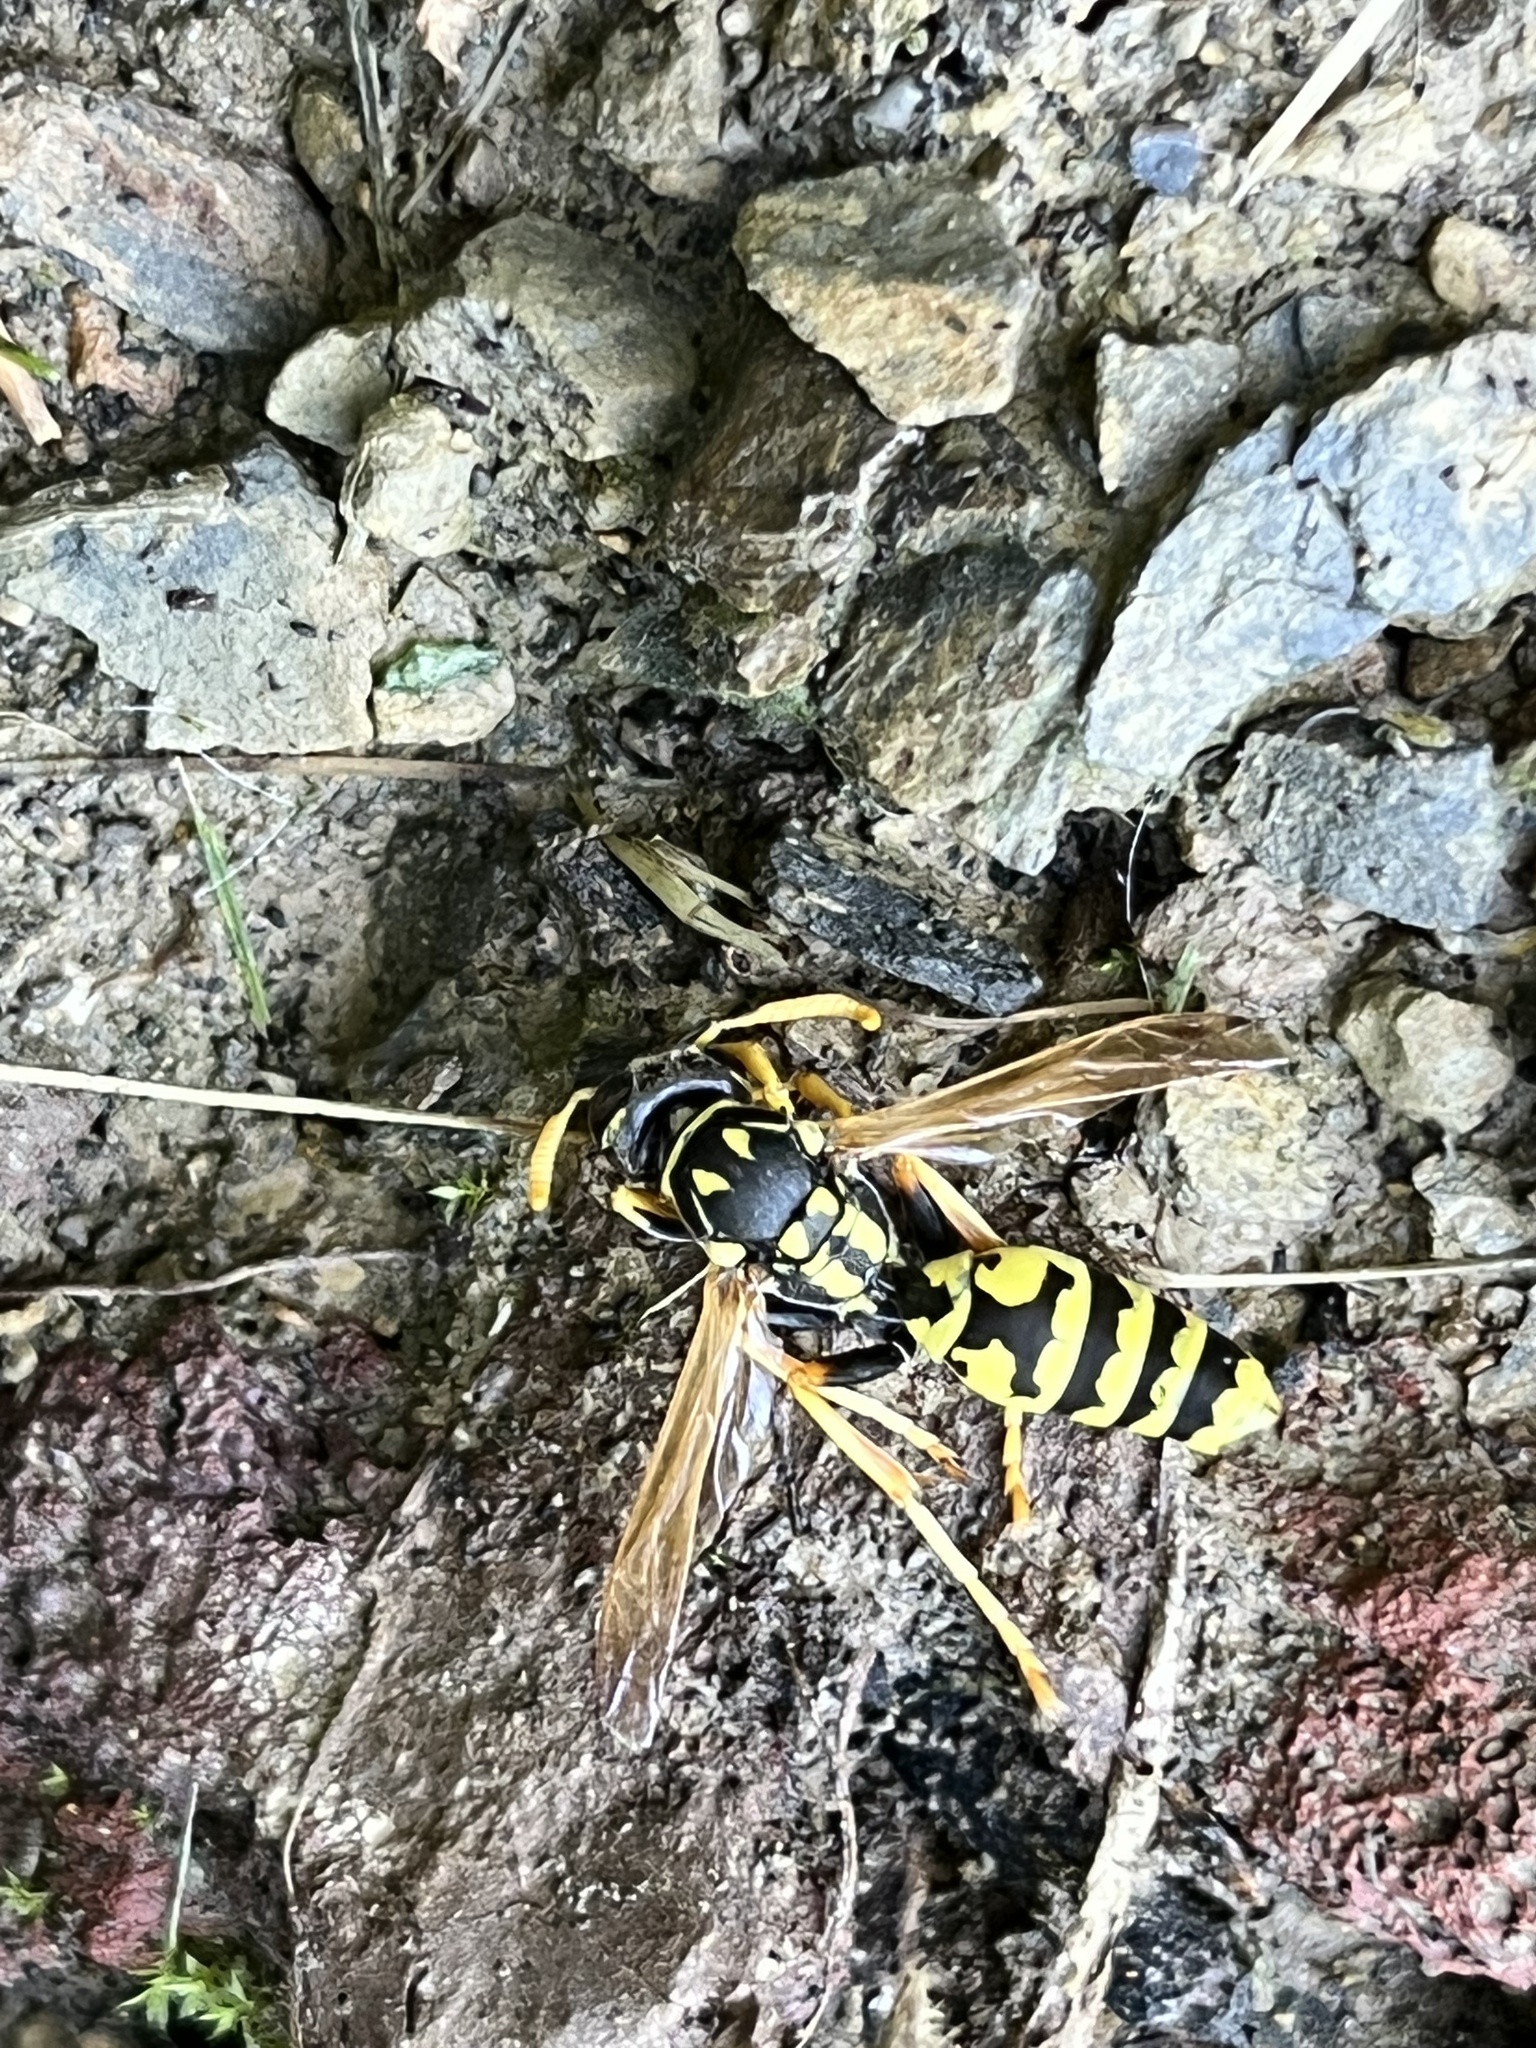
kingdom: Animalia
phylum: Arthropoda
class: Insecta
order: Hymenoptera
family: Eumenidae
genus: Polistes
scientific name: Polistes dominula
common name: Paper wasp
